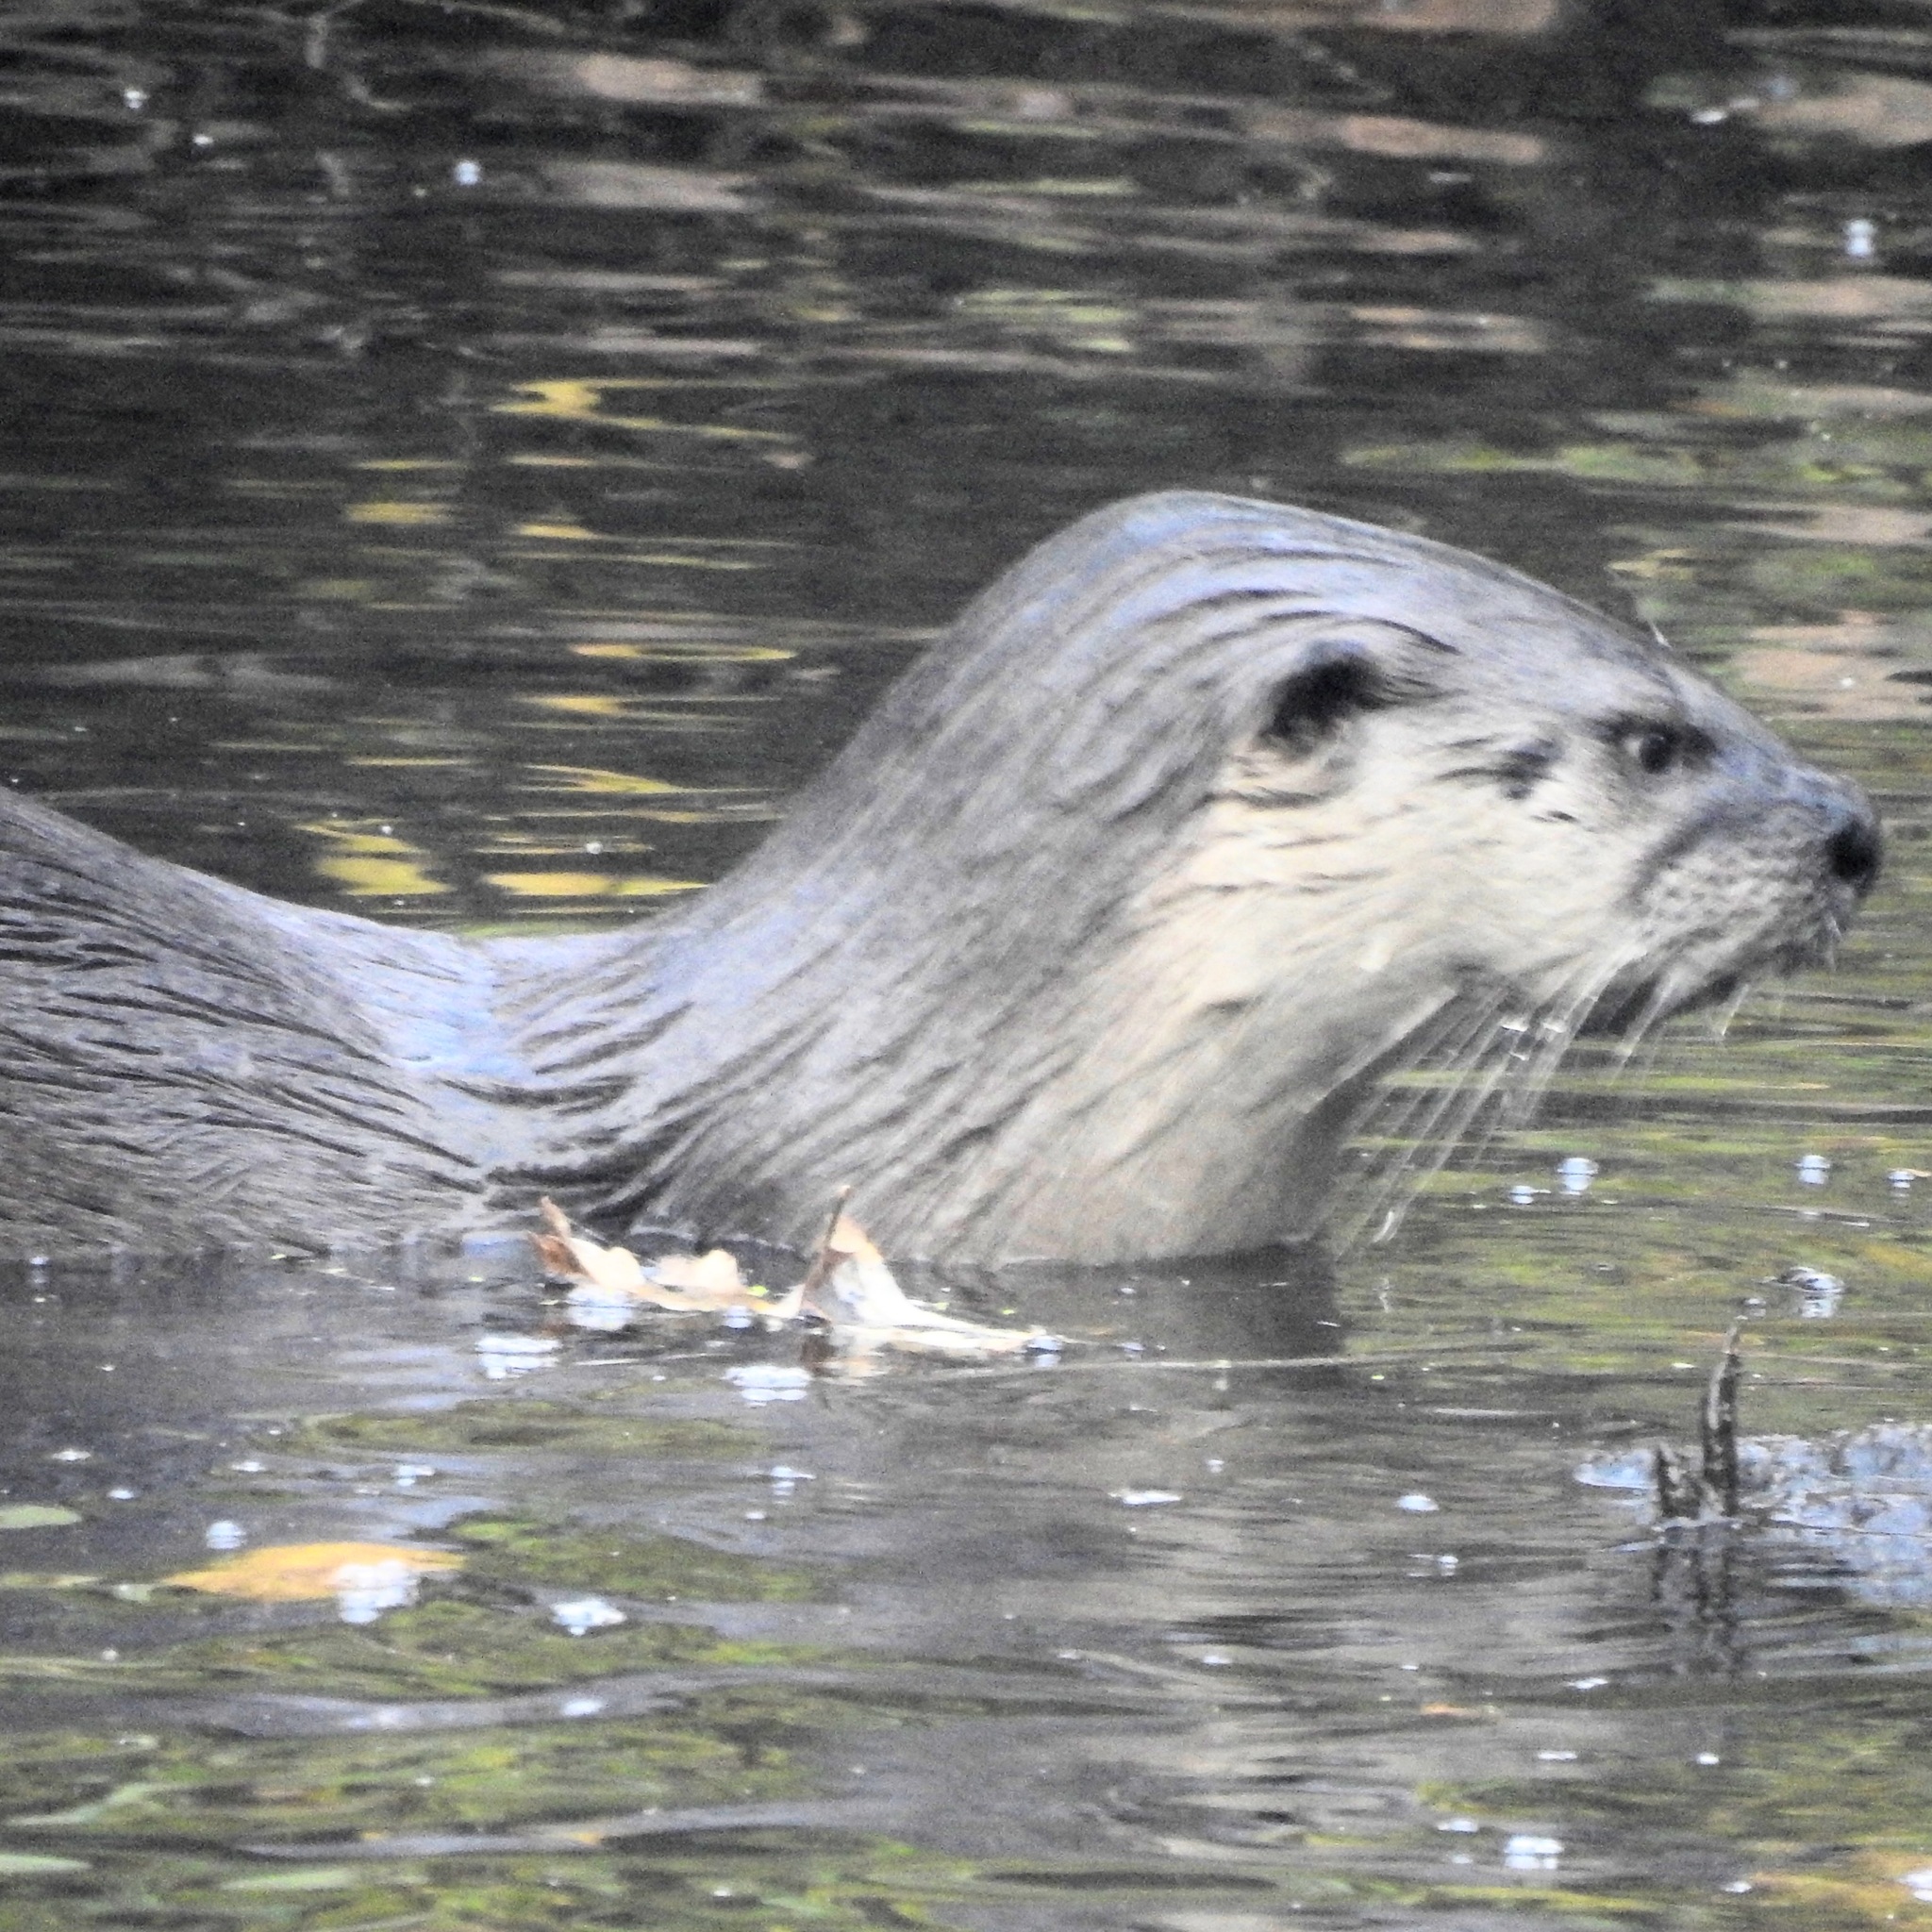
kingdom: Animalia
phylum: Chordata
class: Mammalia
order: Carnivora
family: Mustelidae
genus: Lontra
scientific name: Lontra canadensis
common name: North american river otter
